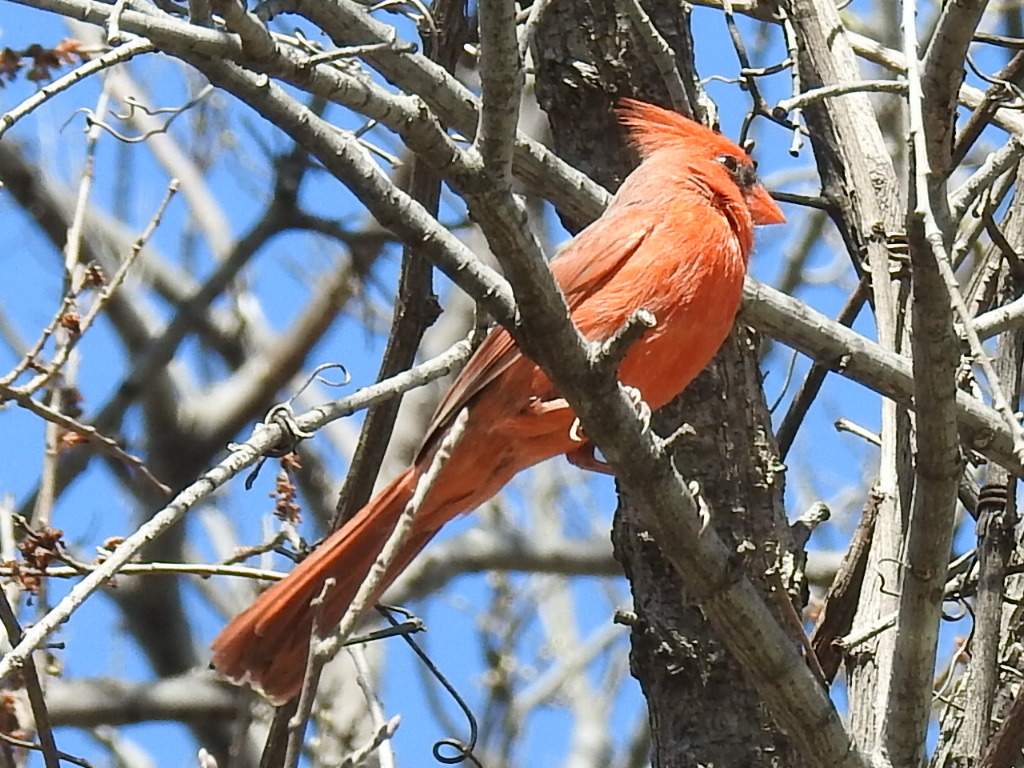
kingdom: Animalia
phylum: Chordata
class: Aves
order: Passeriformes
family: Cardinalidae
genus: Cardinalis
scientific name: Cardinalis cardinalis
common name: Northern cardinal
